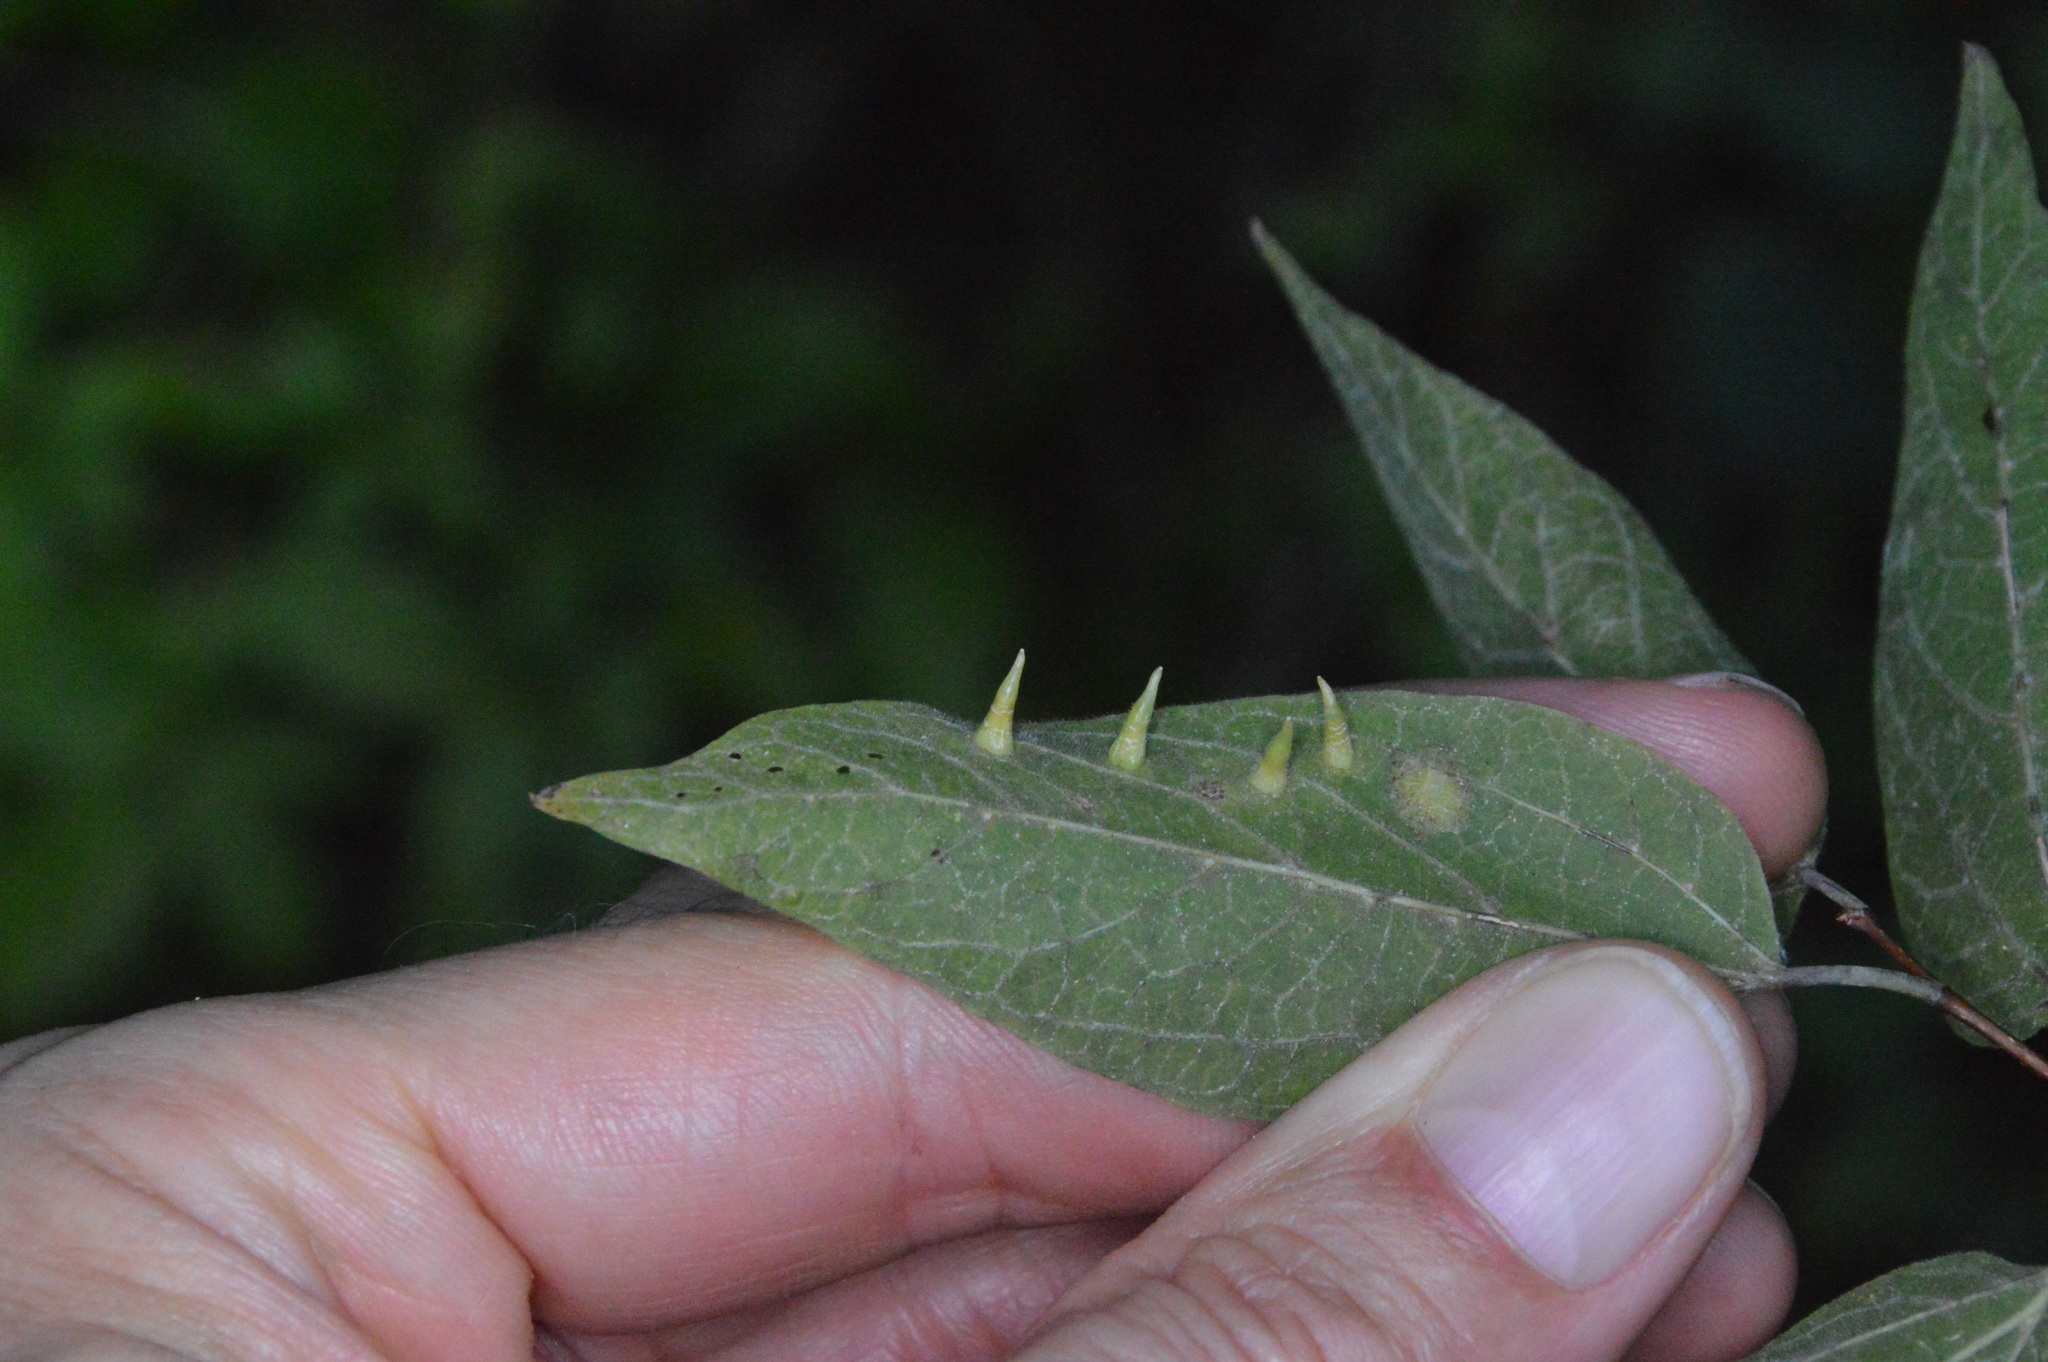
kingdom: Animalia
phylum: Arthropoda
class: Insecta
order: Diptera
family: Cecidomyiidae
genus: Celticecis
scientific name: Celticecis subulata
